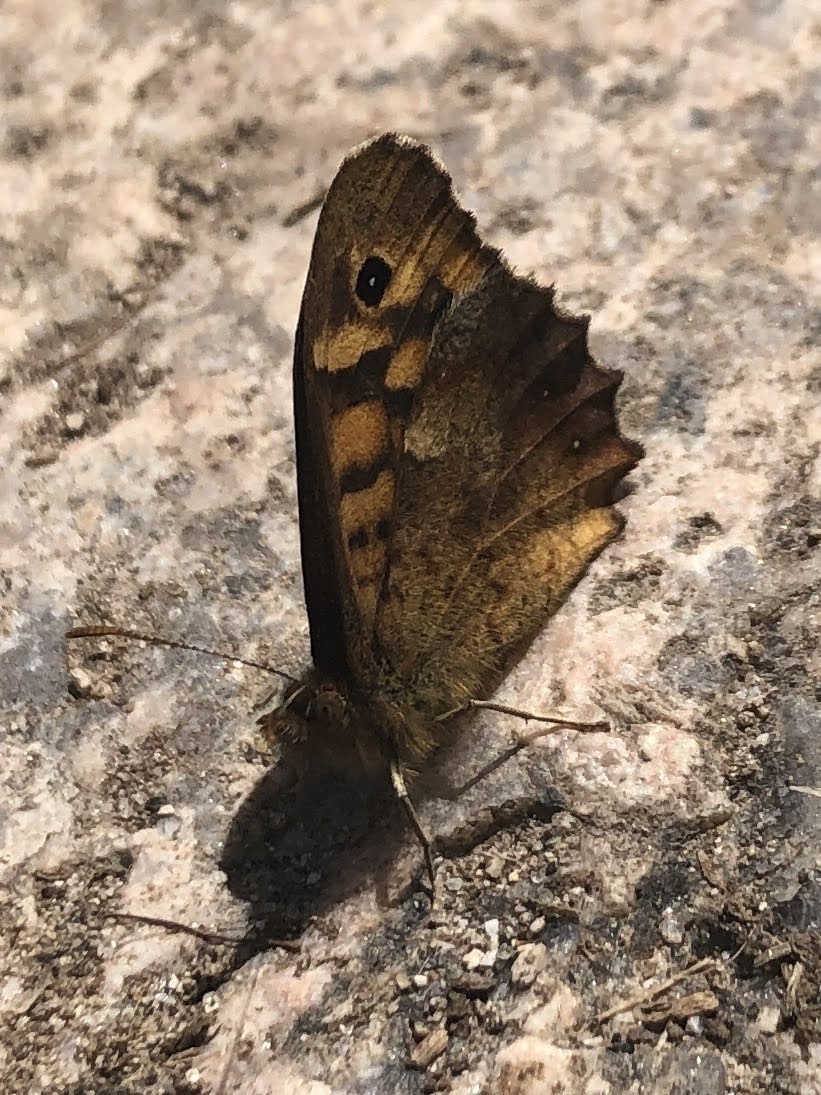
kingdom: Animalia
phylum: Arthropoda
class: Insecta
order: Lepidoptera
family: Nymphalidae
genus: Pararge
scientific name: Pararge aegeria
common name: Speckled wood
